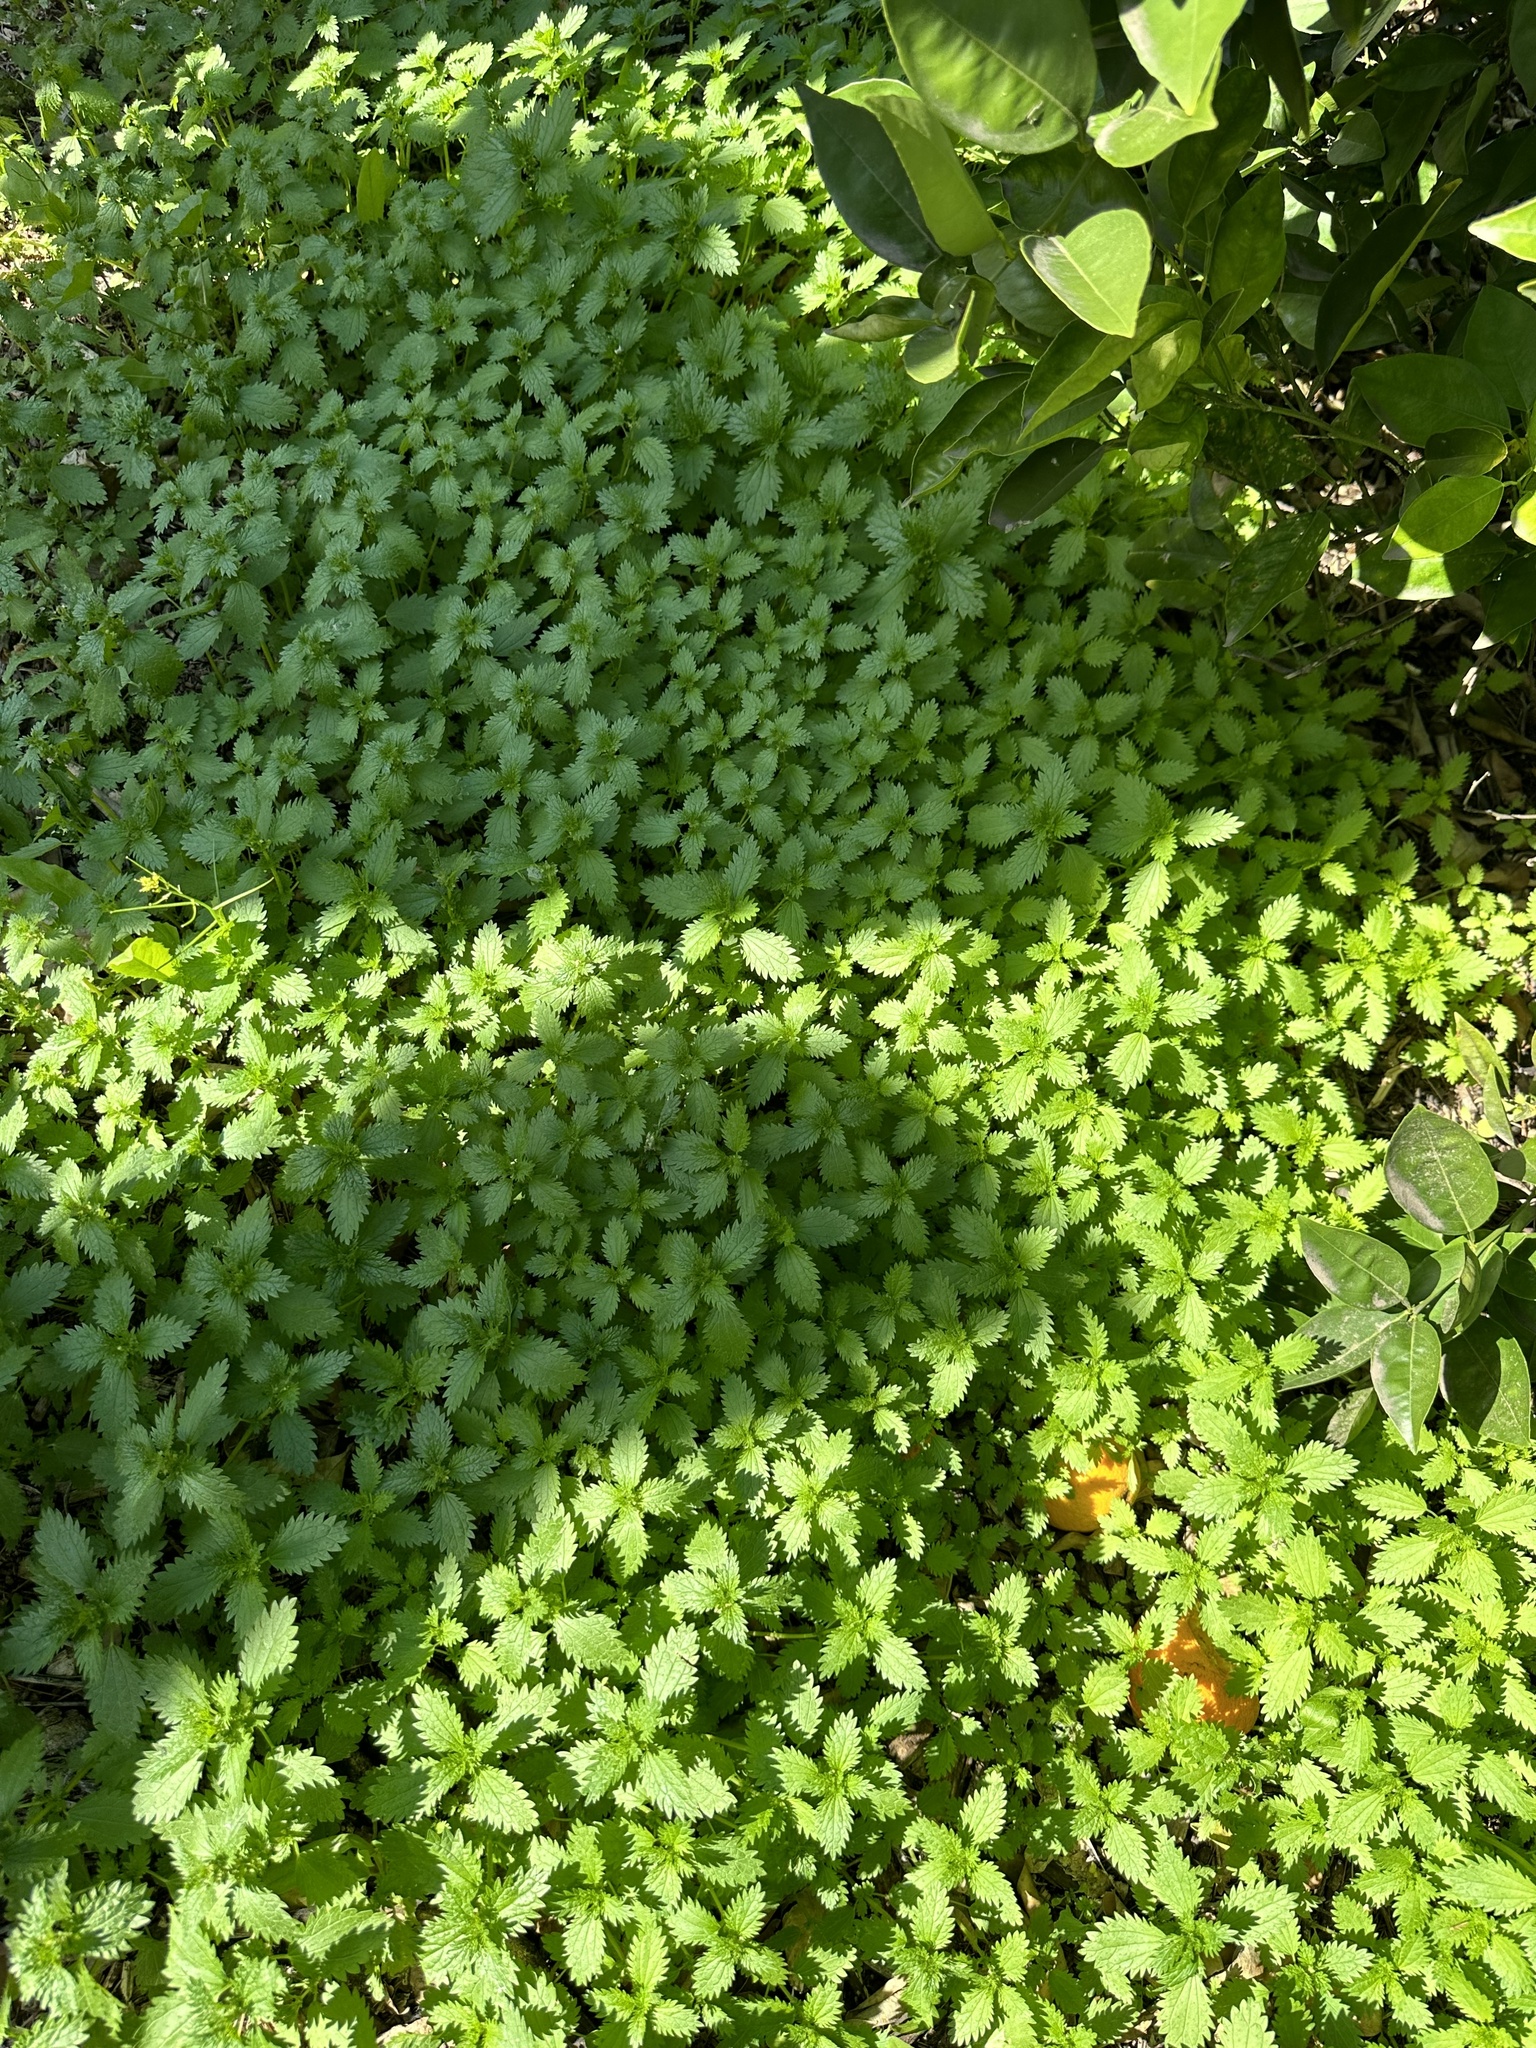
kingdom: Plantae
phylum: Tracheophyta
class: Magnoliopsida
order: Rosales
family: Urticaceae
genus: Urtica
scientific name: Urtica urens
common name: Dwarf nettle
